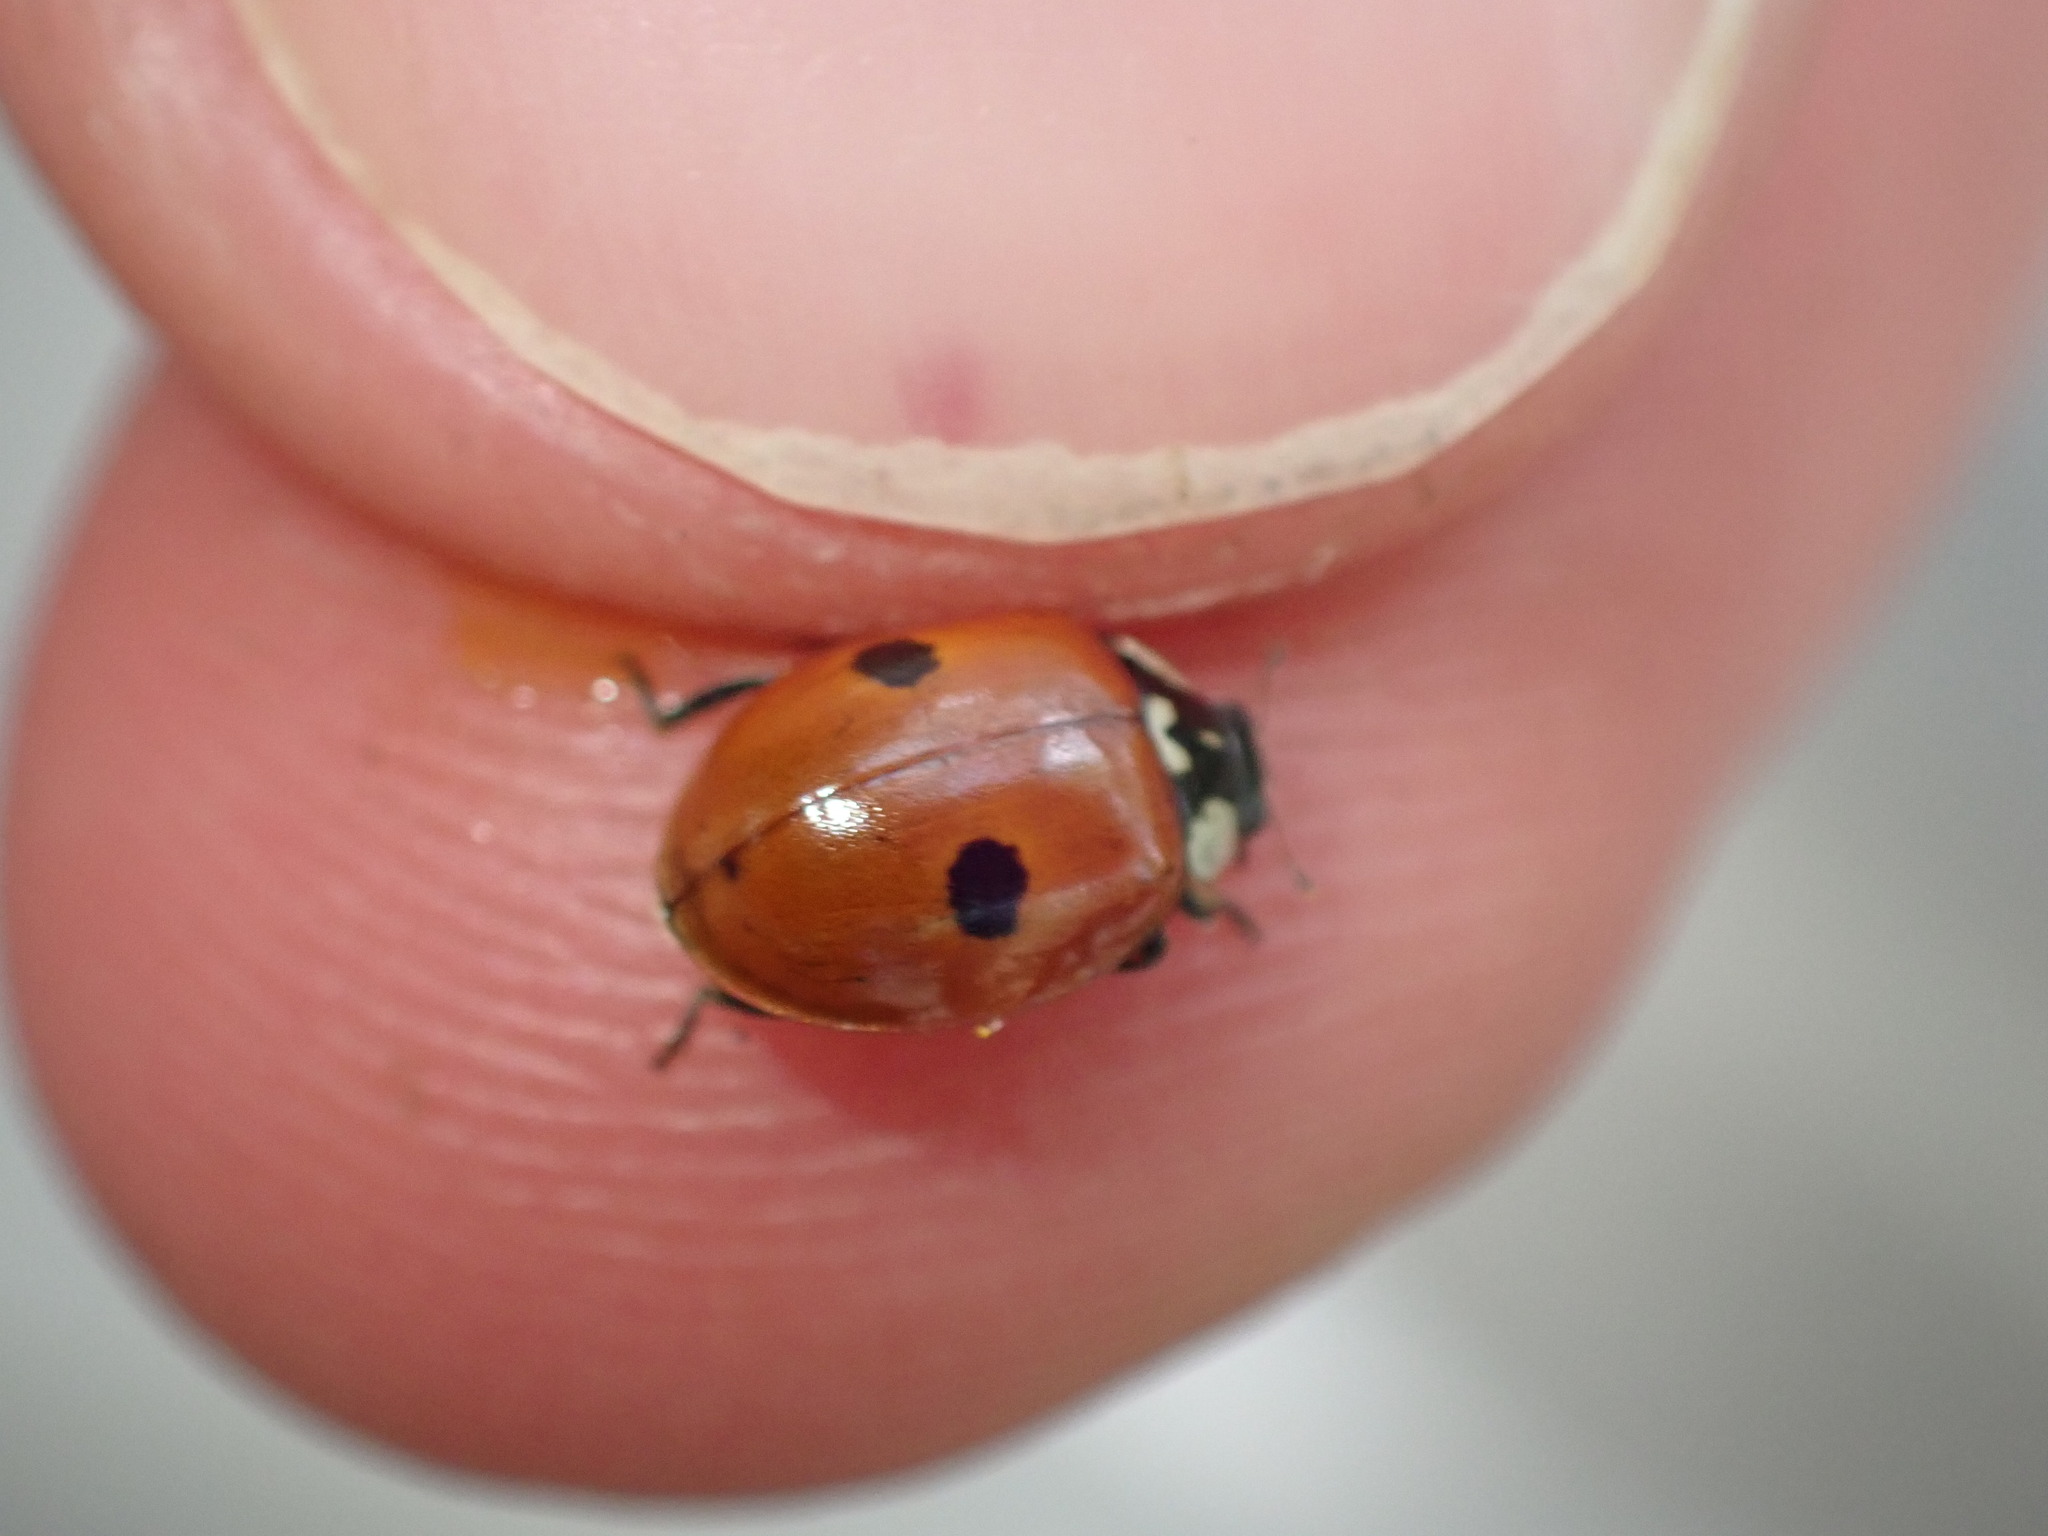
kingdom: Animalia
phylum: Arthropoda
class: Insecta
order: Coleoptera
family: Coccinellidae
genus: Adalia
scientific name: Adalia bipunctata
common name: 2-spot ladybird
